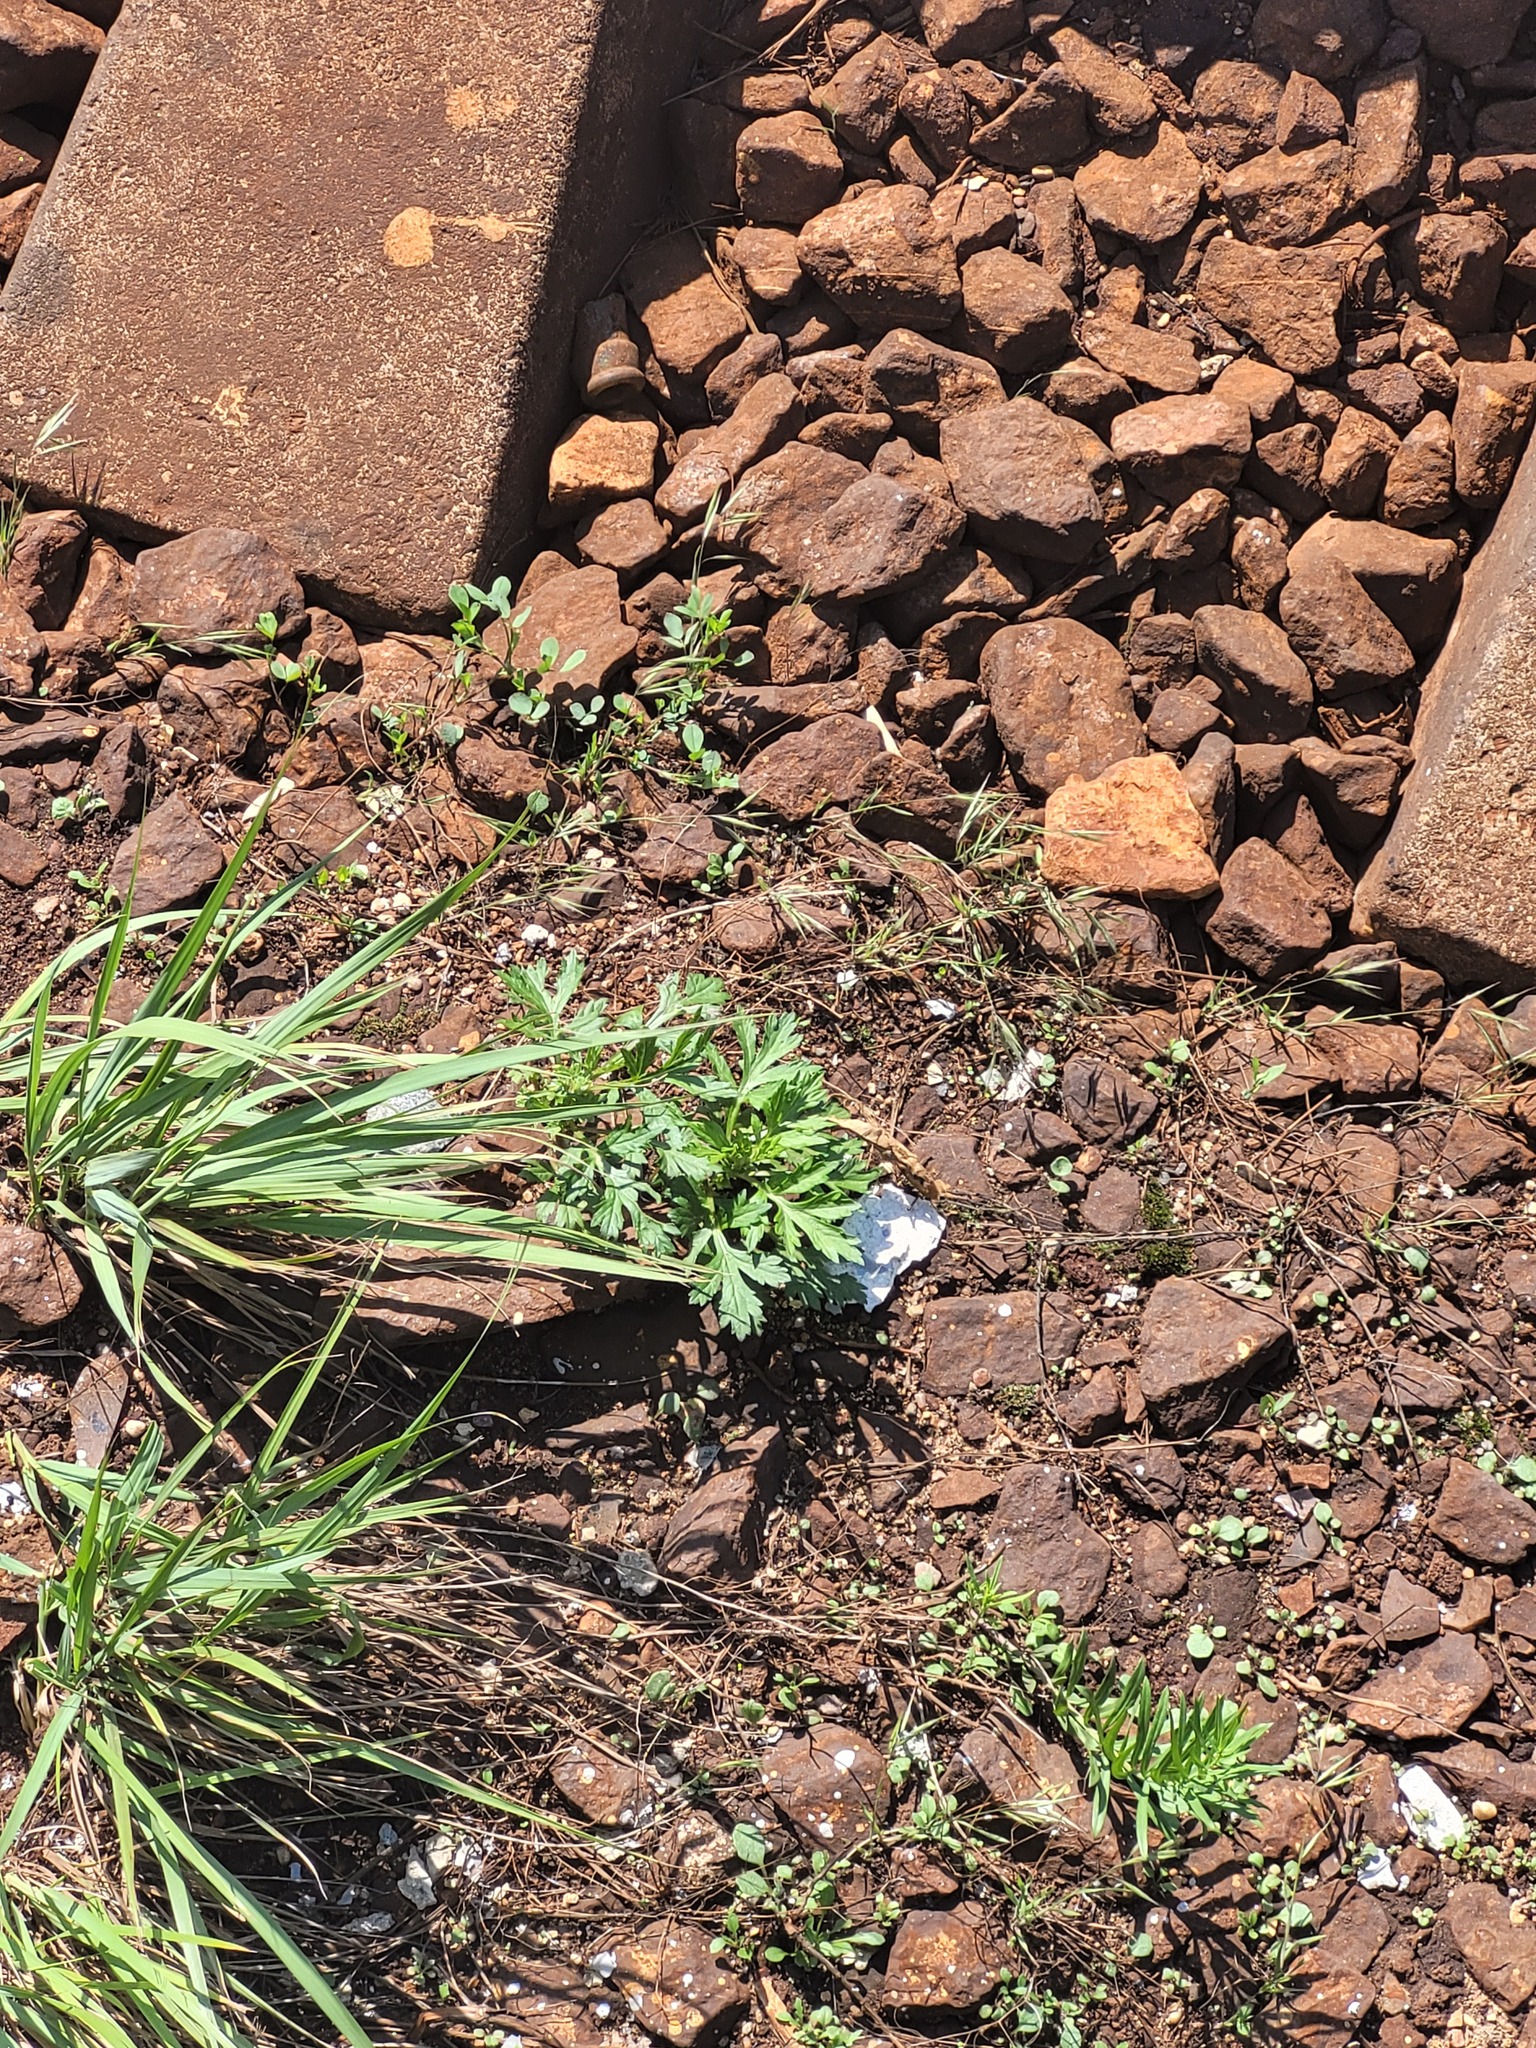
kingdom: Plantae
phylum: Tracheophyta
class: Magnoliopsida
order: Asterales
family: Asteraceae
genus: Artemisia
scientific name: Artemisia vulgaris
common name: Mugwort
